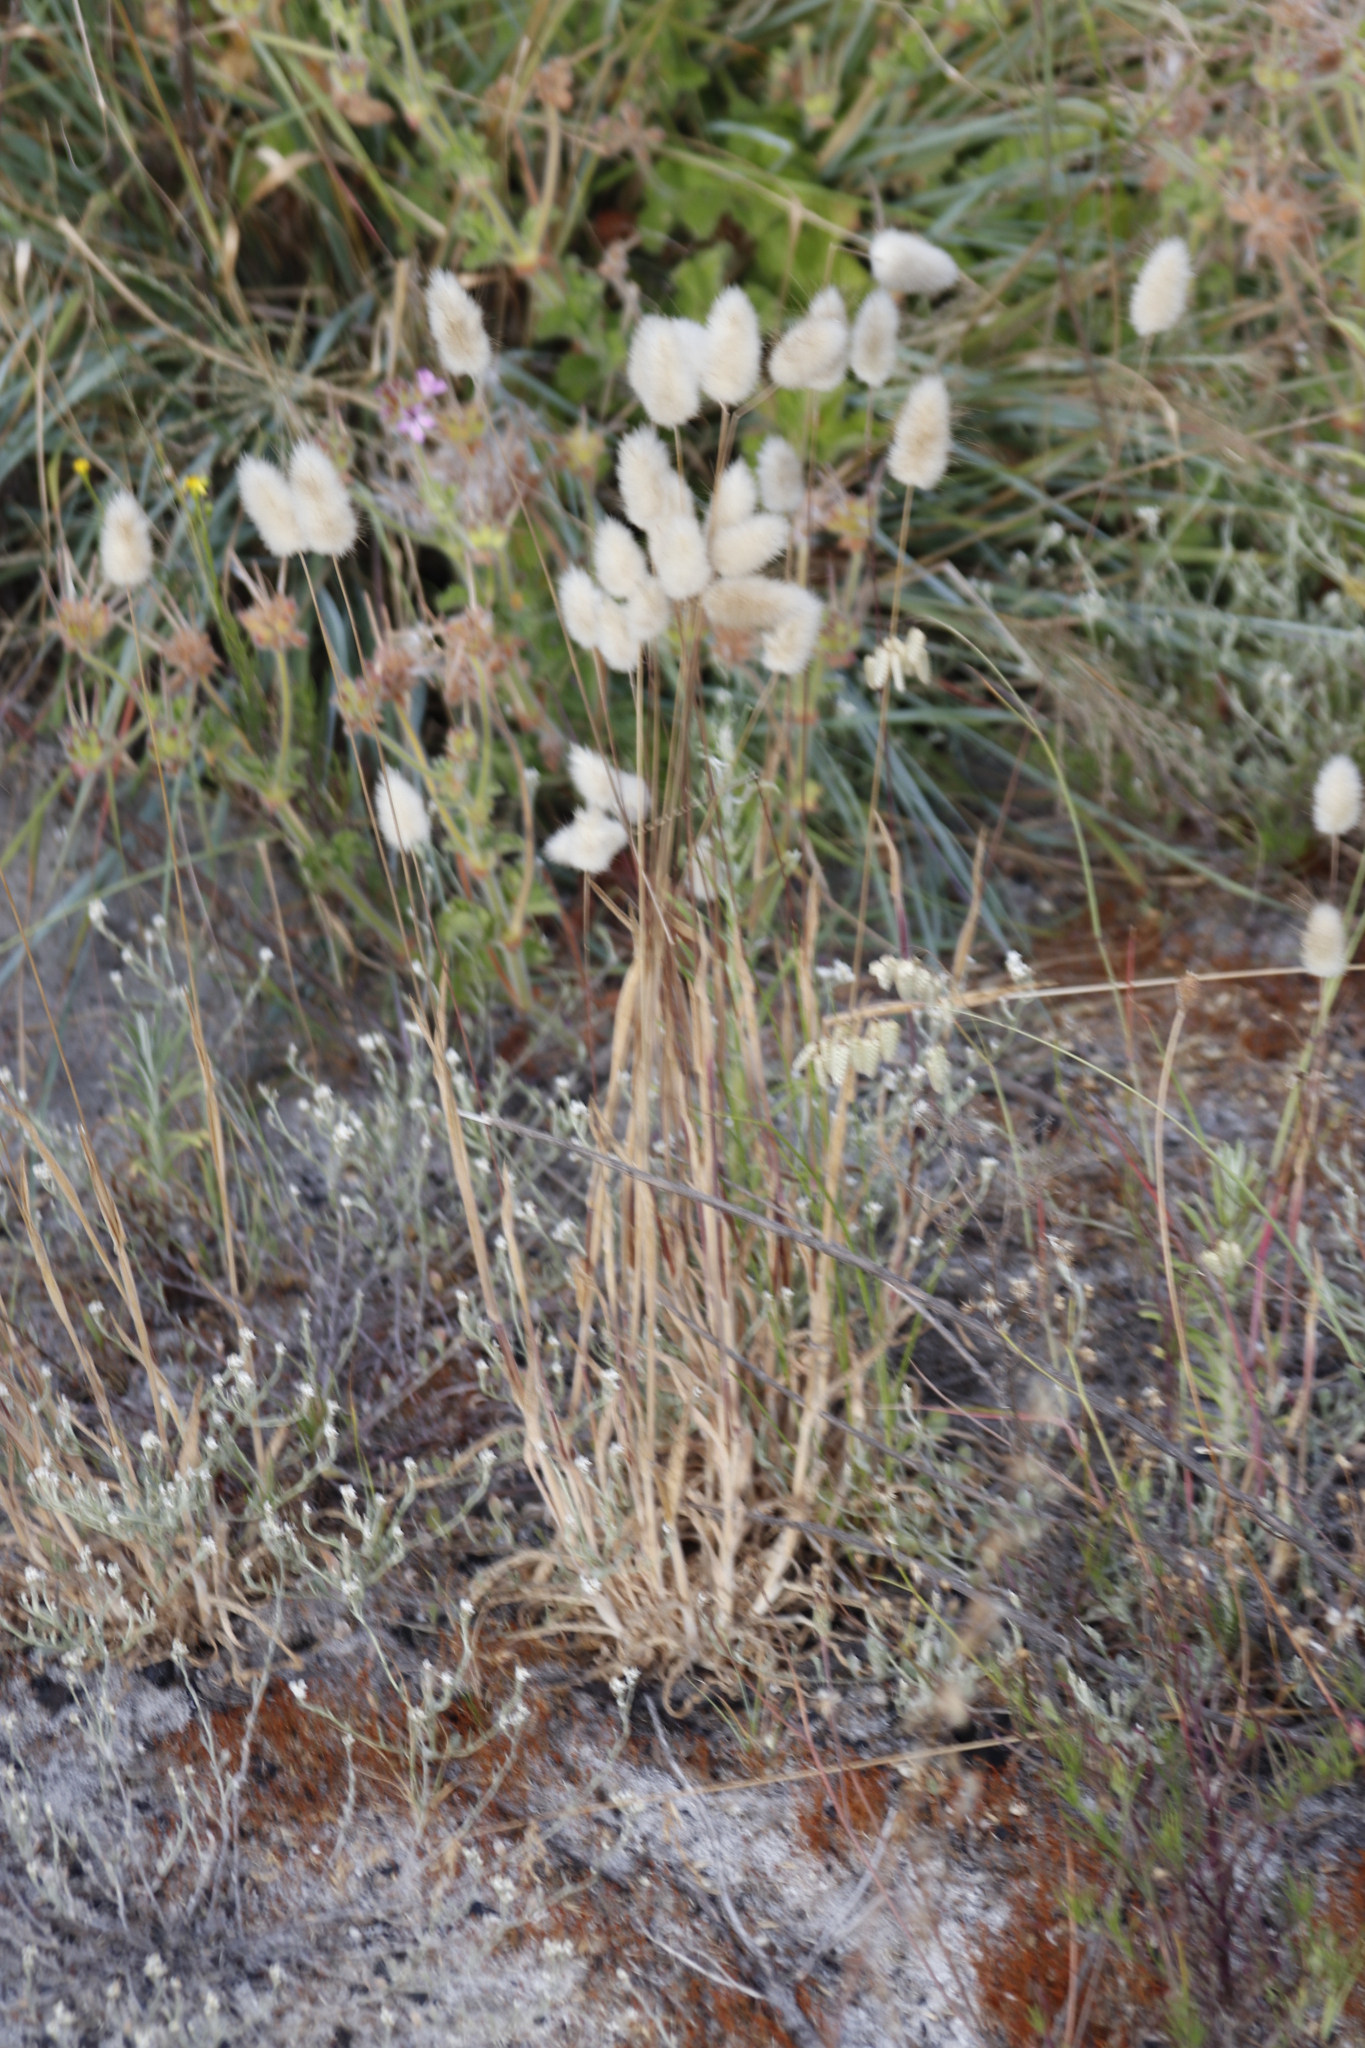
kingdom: Plantae
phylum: Tracheophyta
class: Liliopsida
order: Poales
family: Poaceae
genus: Lagurus
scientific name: Lagurus ovatus
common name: Hare's-tail
